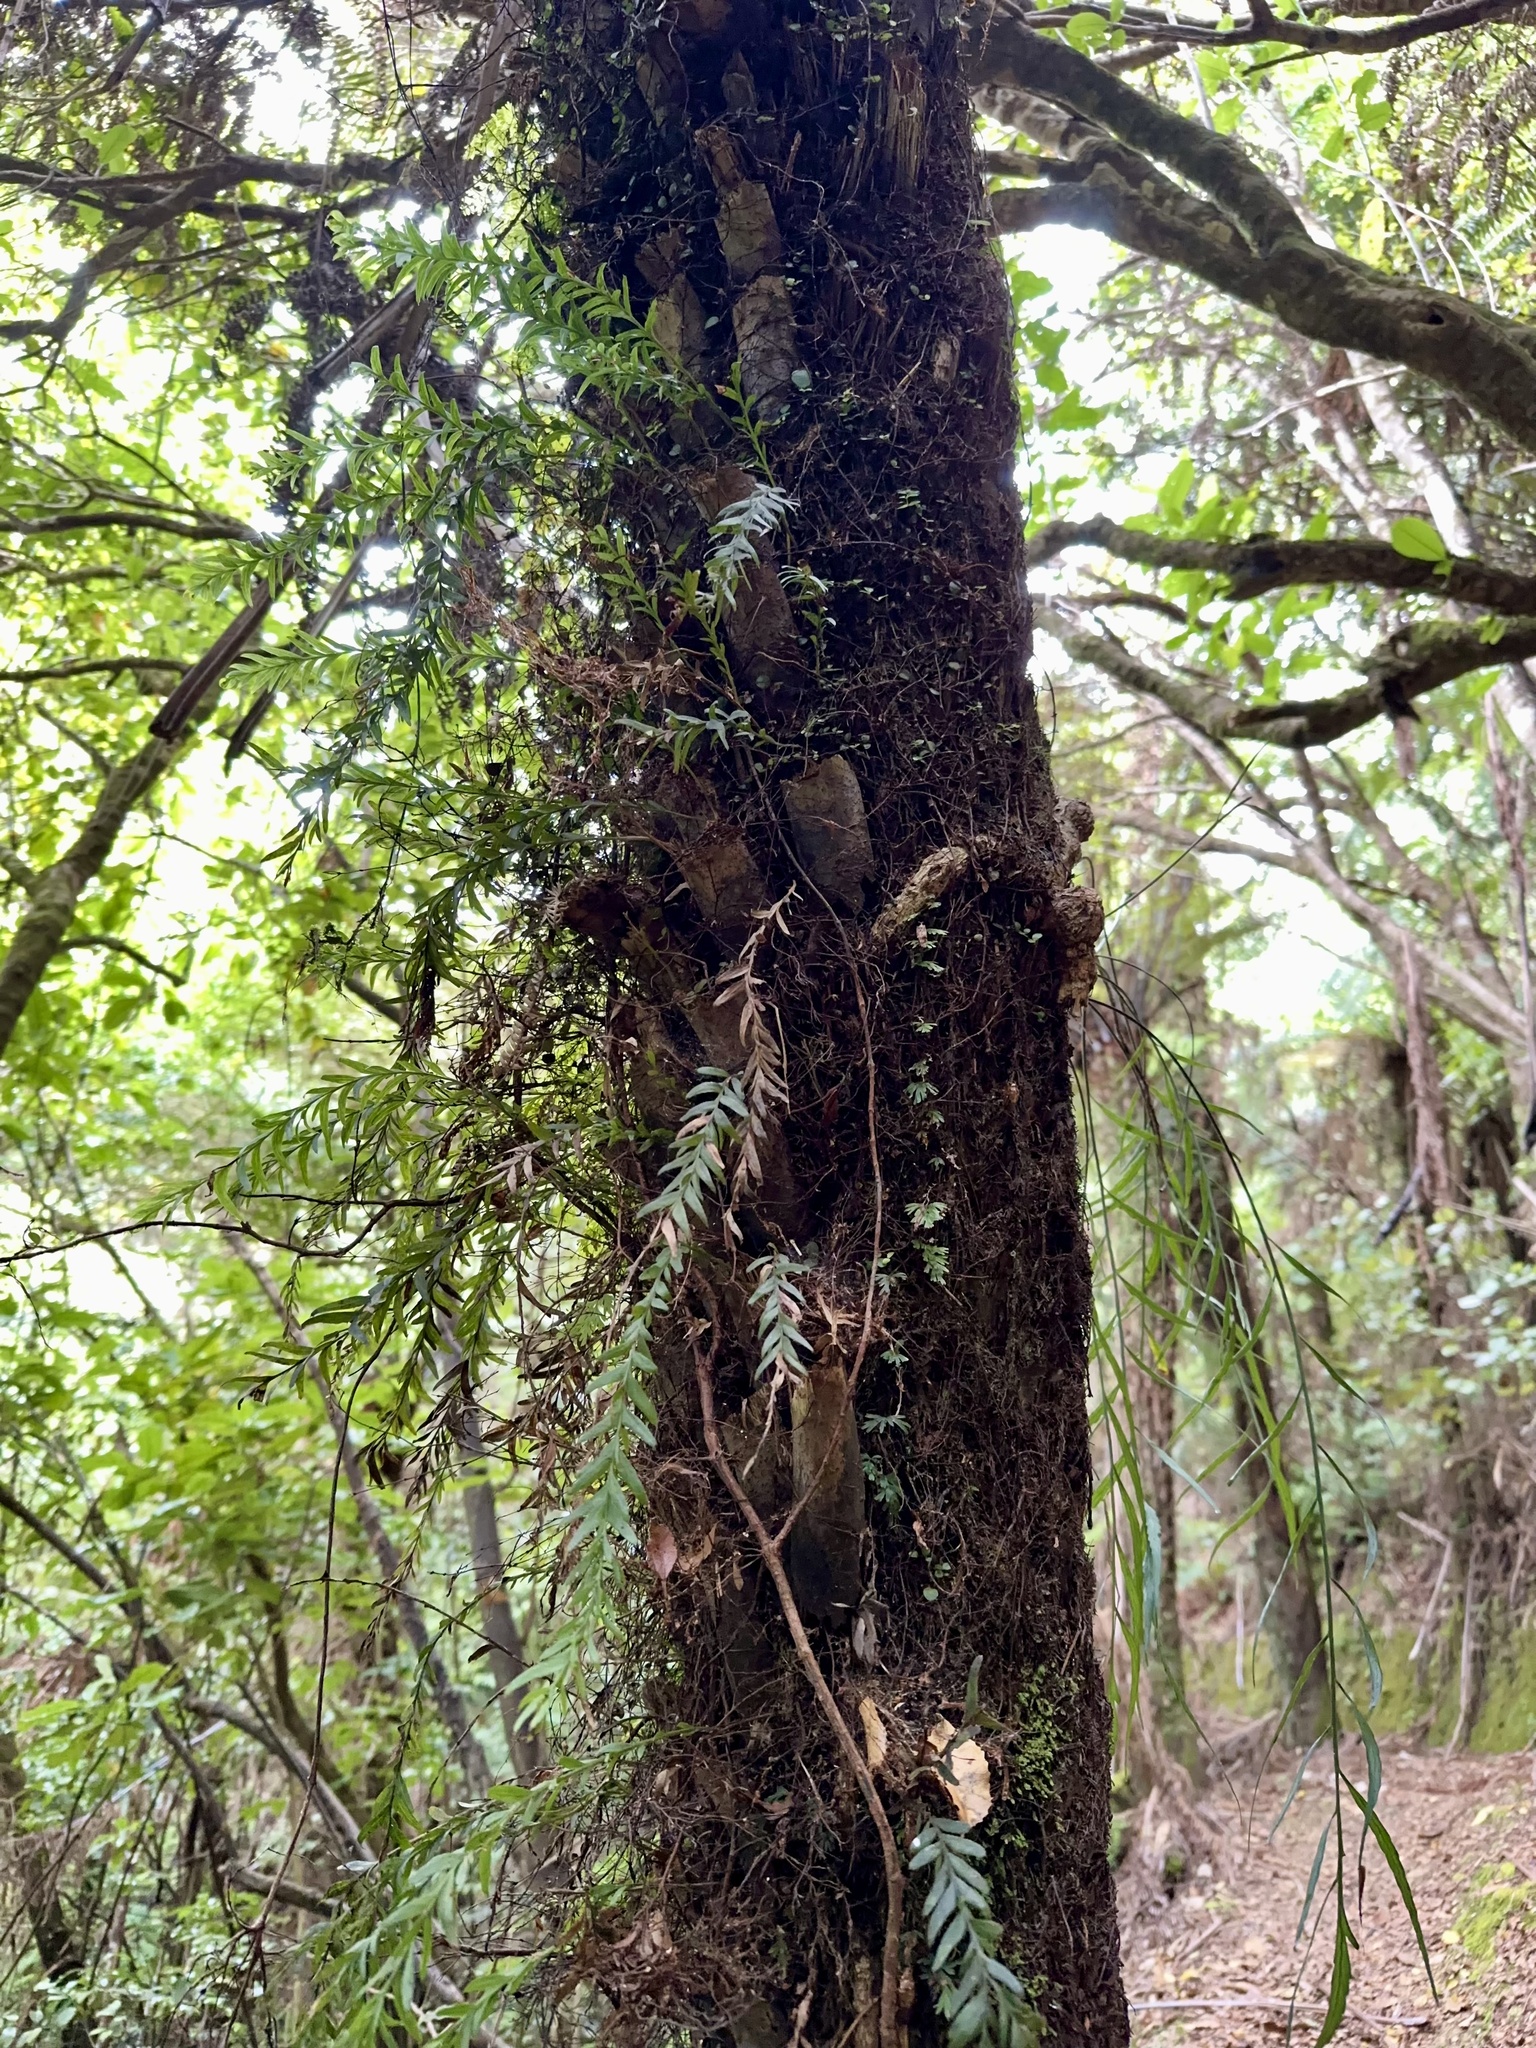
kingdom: Plantae
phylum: Tracheophyta
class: Polypodiopsida
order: Psilotales
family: Psilotaceae
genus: Tmesipteris
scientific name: Tmesipteris elongata
